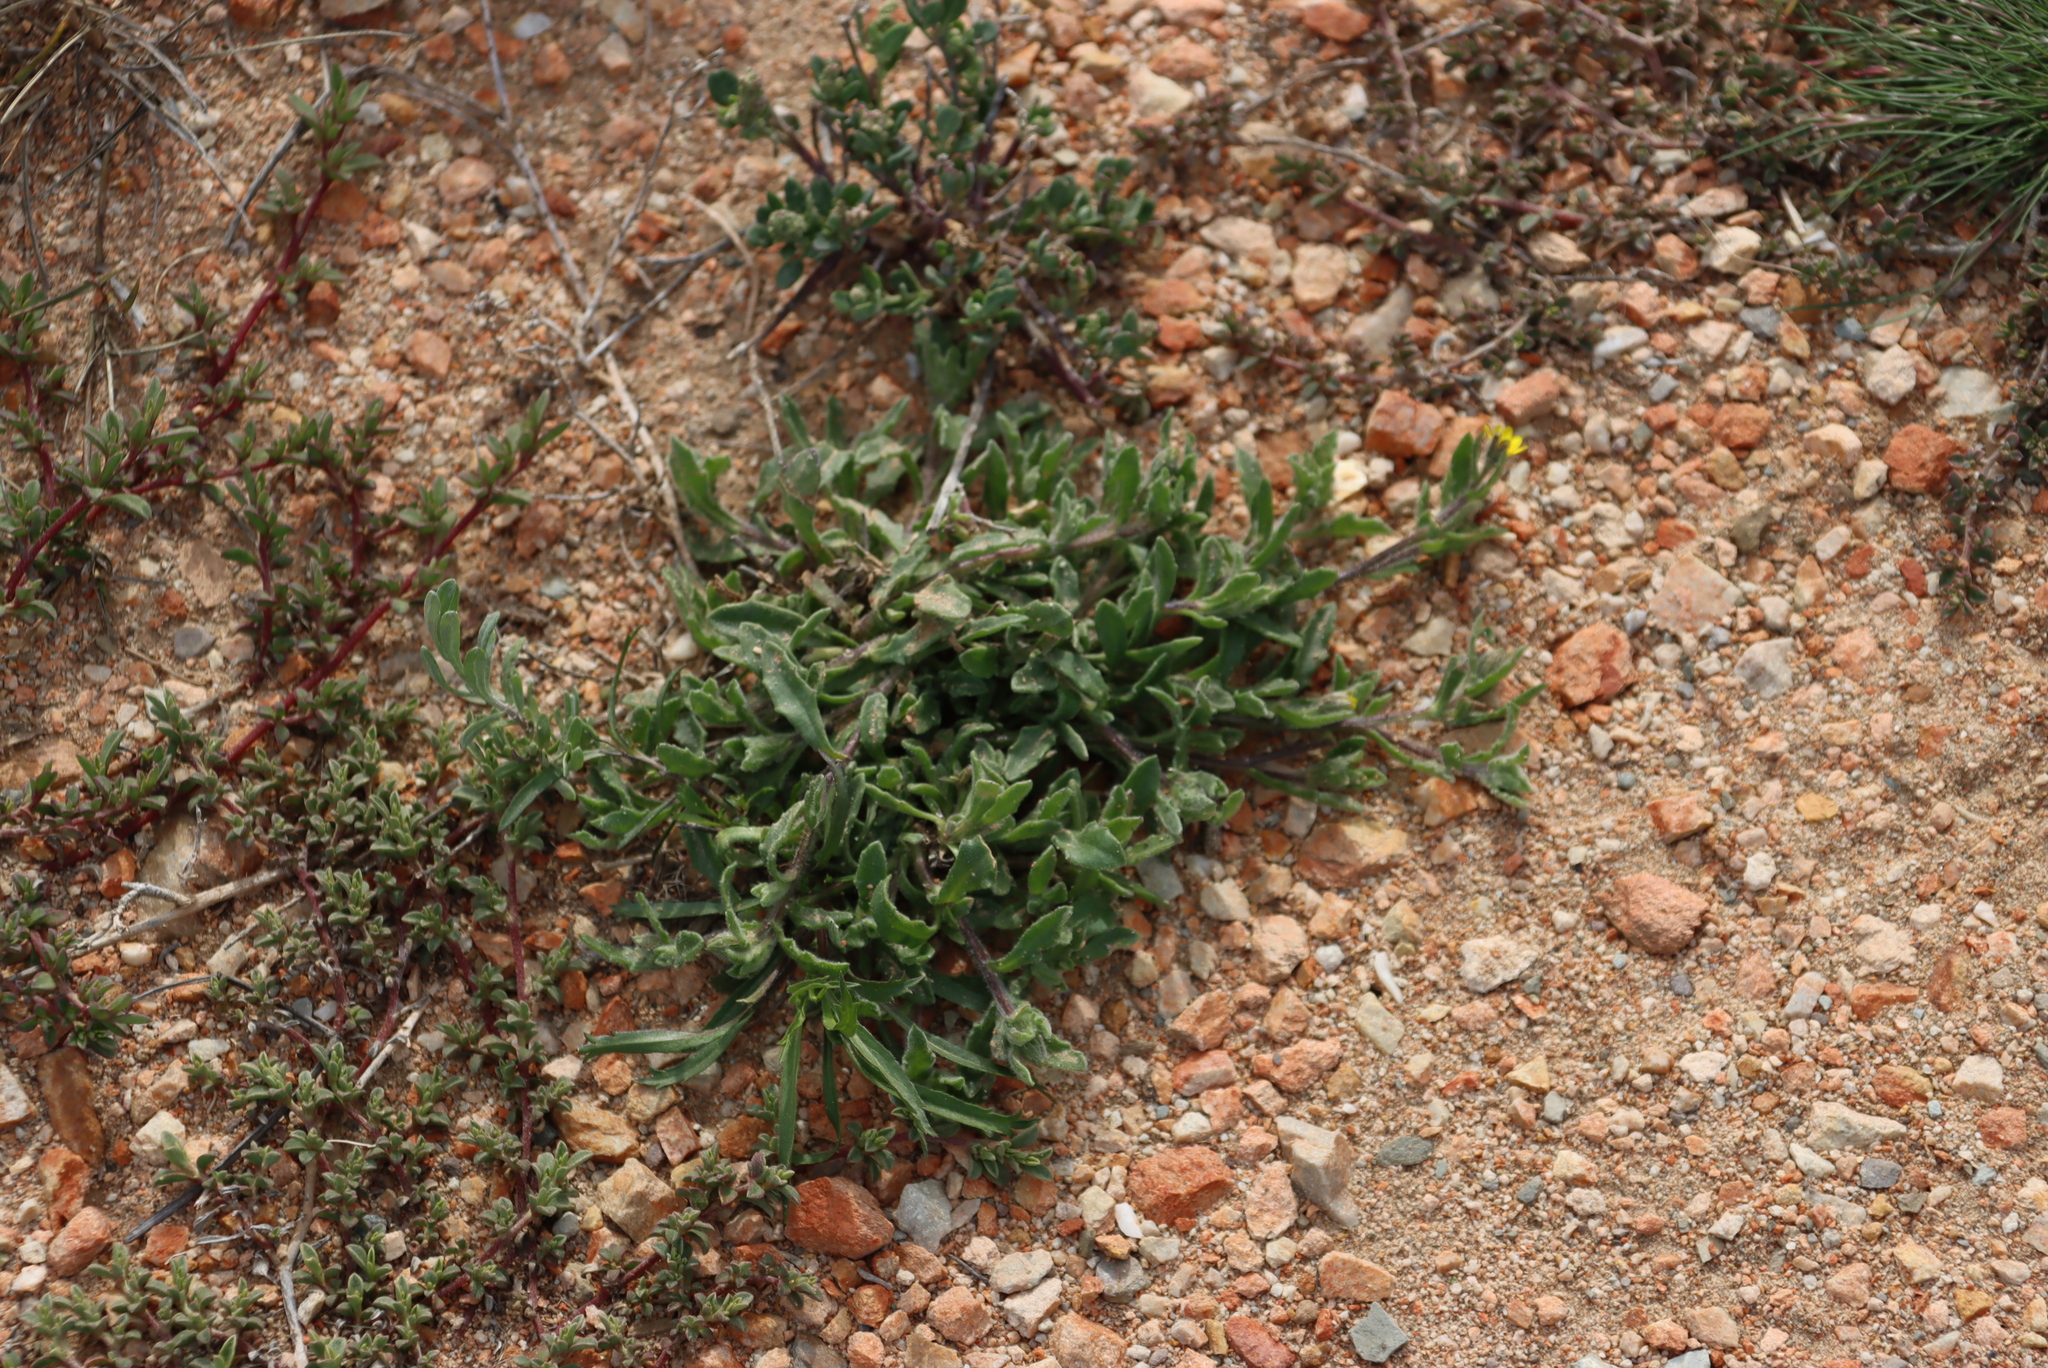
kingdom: Plantae
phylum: Tracheophyta
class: Magnoliopsida
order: Asterales
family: Asteraceae
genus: Osteospermum
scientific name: Osteospermum calendulaceum
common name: Stinking roger
